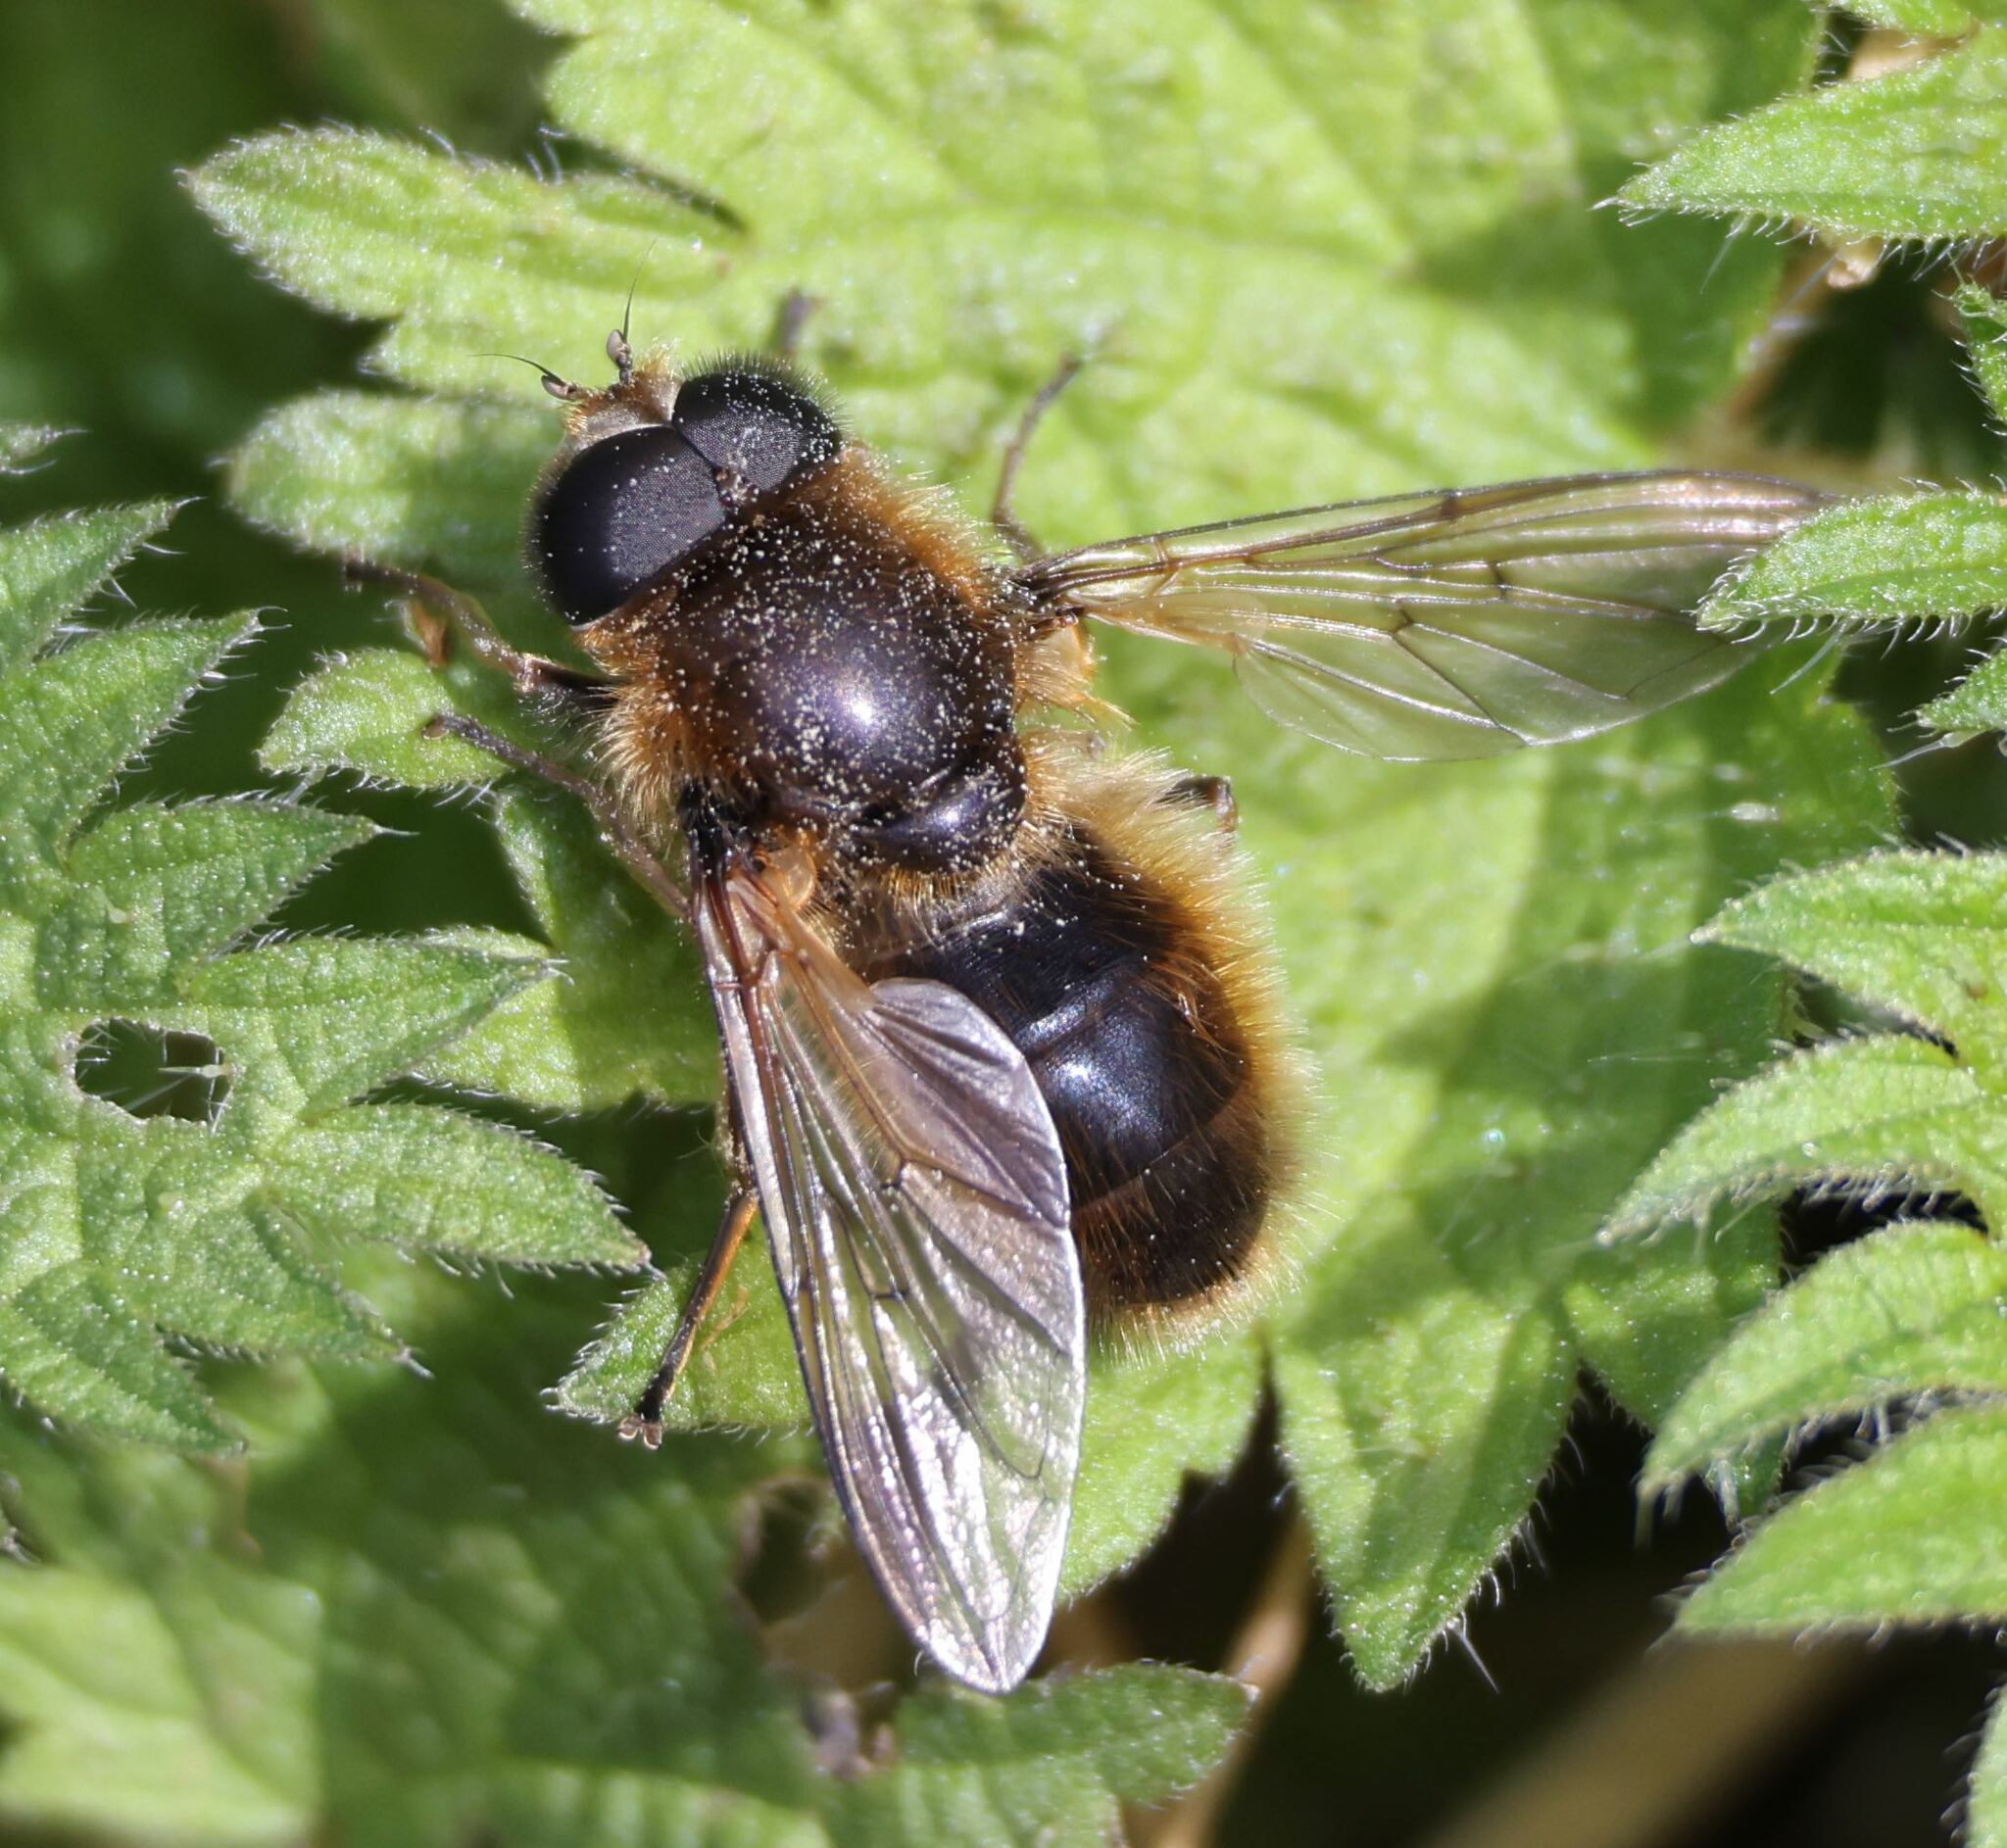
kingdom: Animalia
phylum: Arthropoda
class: Insecta
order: Diptera
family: Syrphidae
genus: Cheilosia
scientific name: Cheilosia corydon
